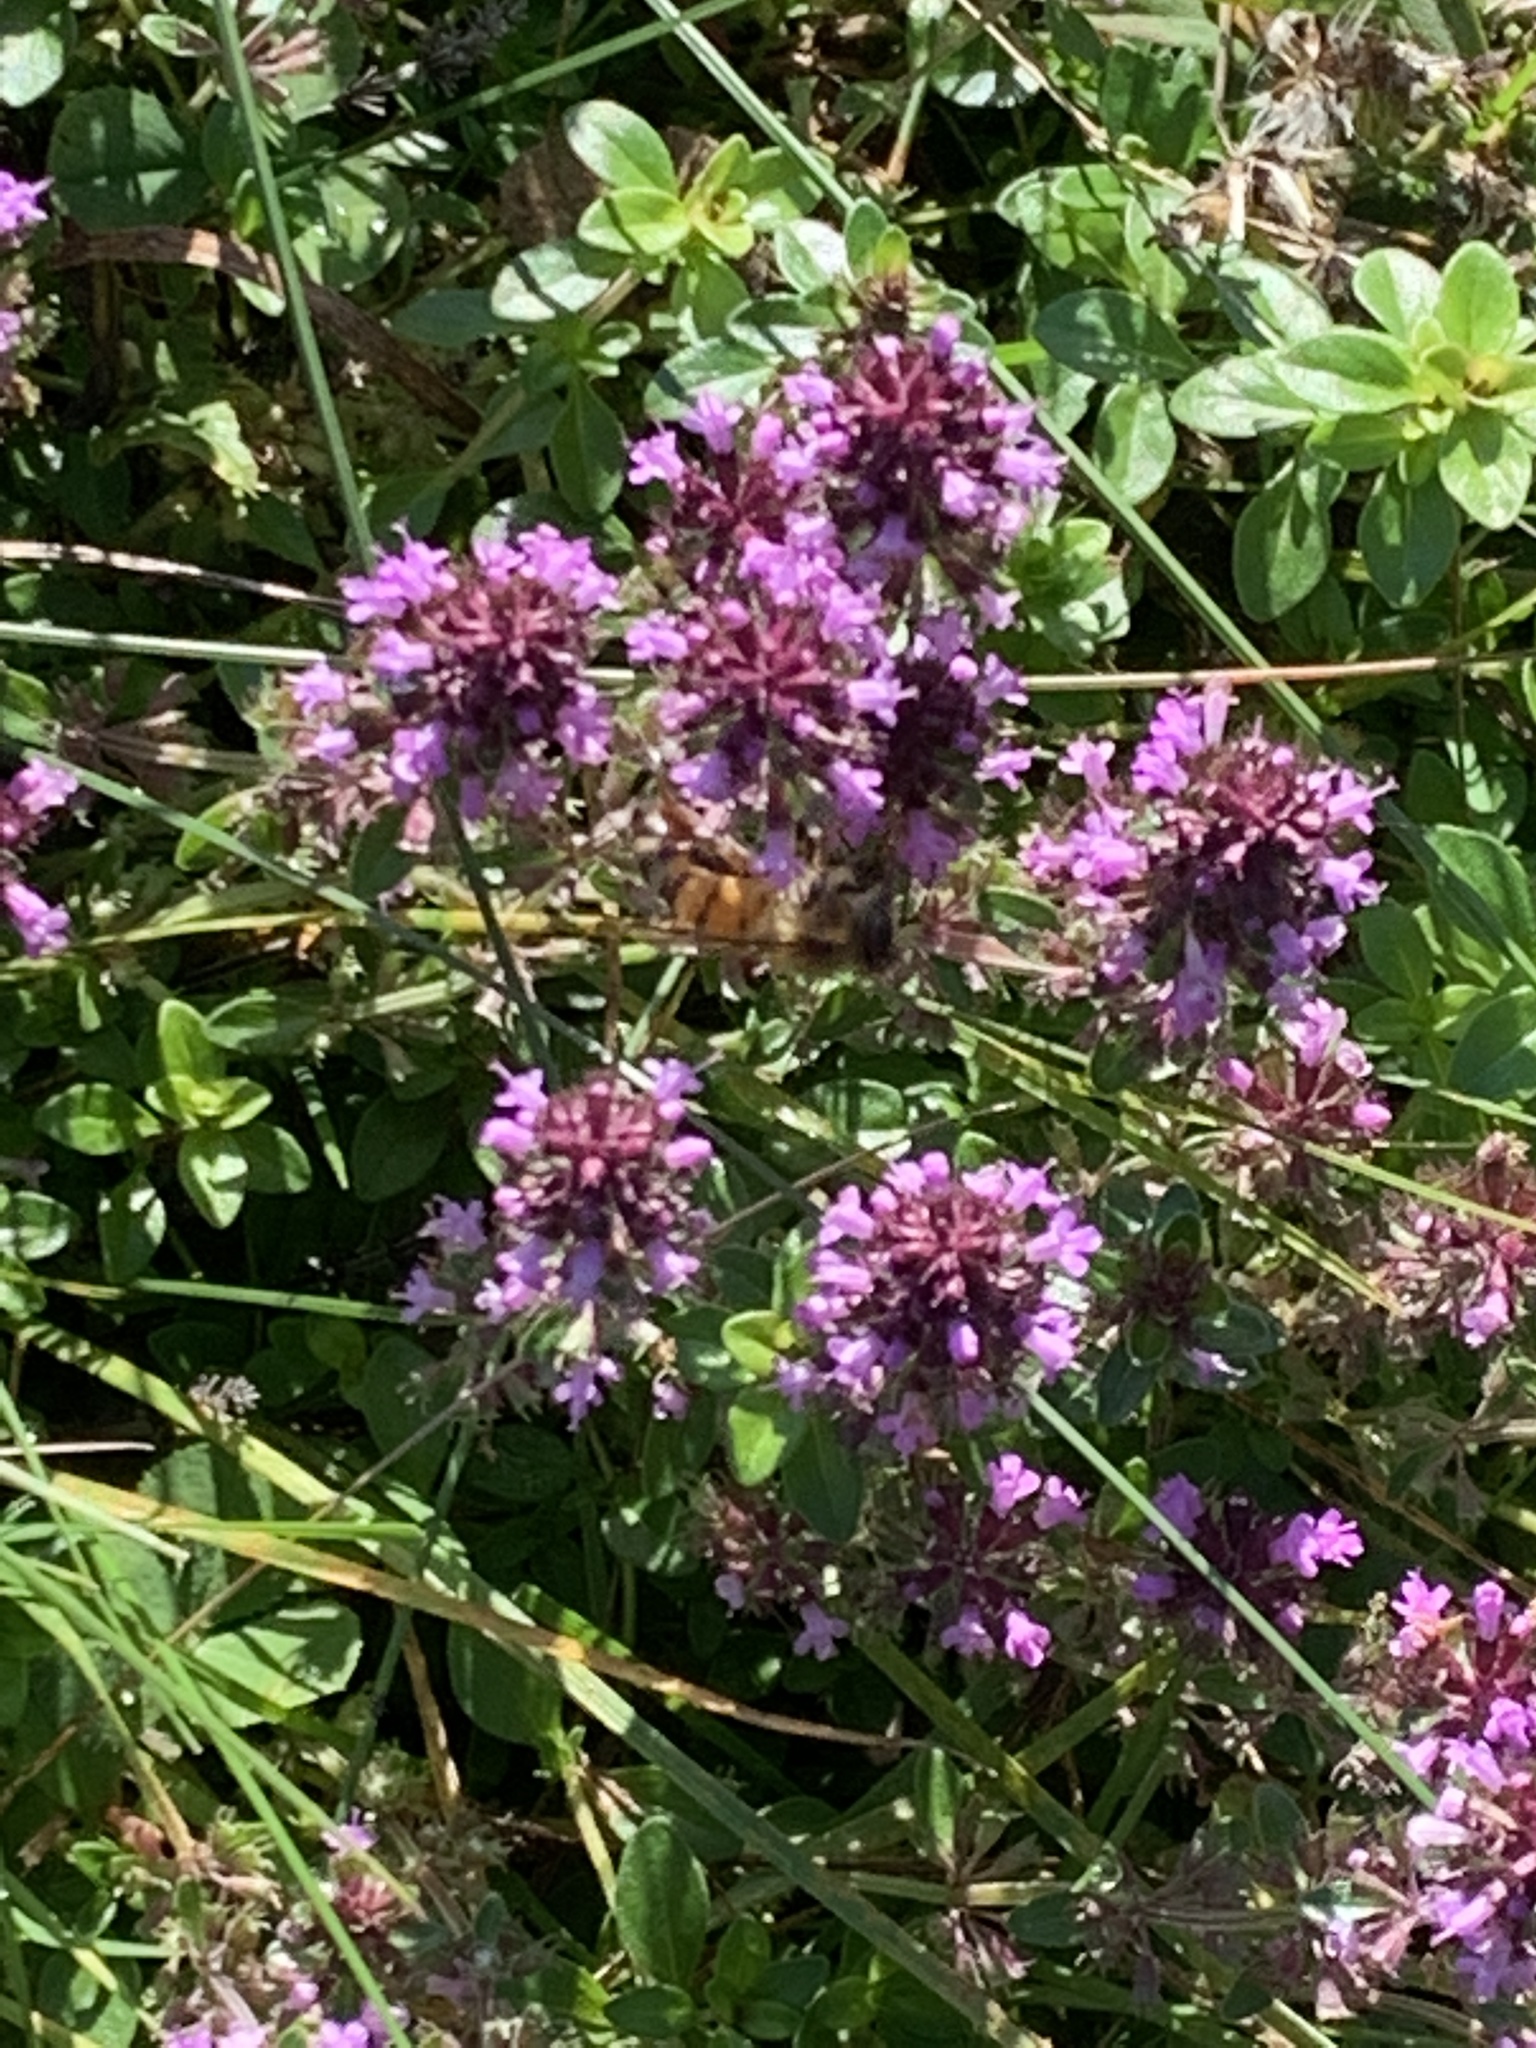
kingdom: Animalia
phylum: Arthropoda
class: Insecta
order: Hymenoptera
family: Apidae
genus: Apis
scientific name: Apis mellifera
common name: Honey bee
